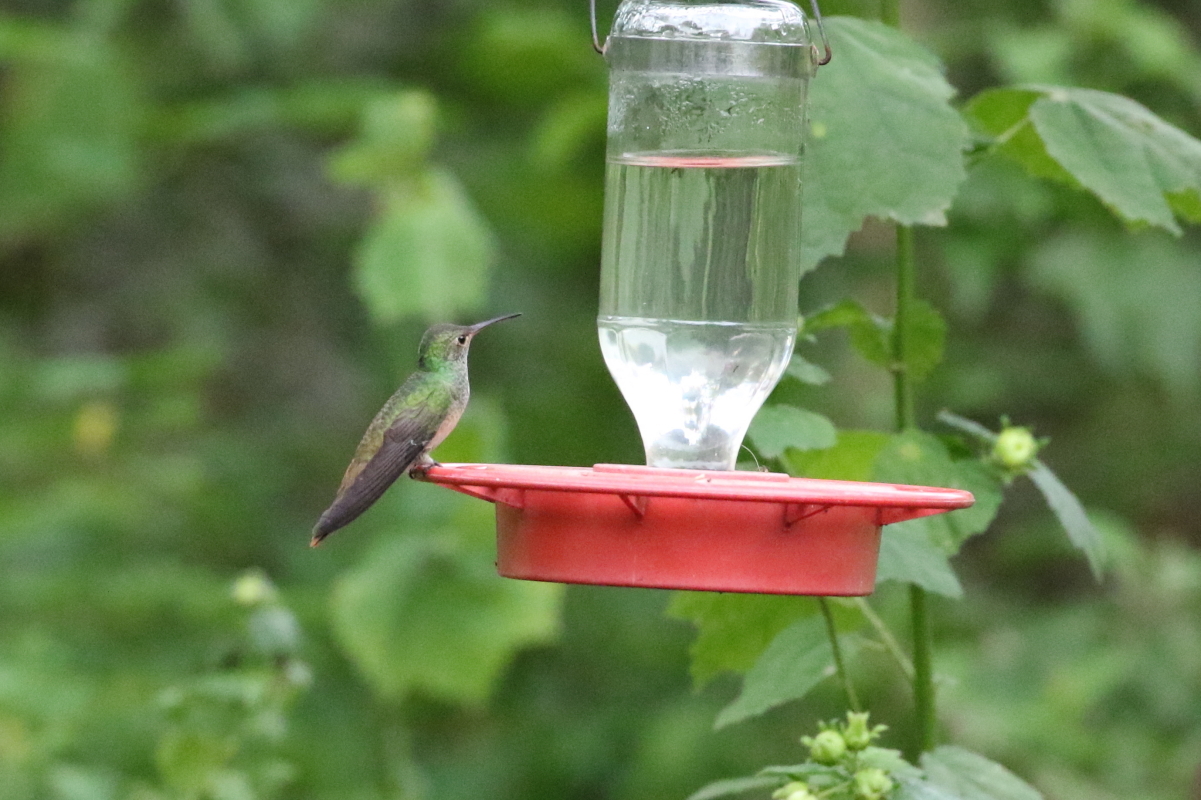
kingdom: Animalia
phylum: Chordata
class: Aves
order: Apodiformes
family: Trochilidae
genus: Amazilia
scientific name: Amazilia yucatanensis
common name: Buff-bellied hummingbird
